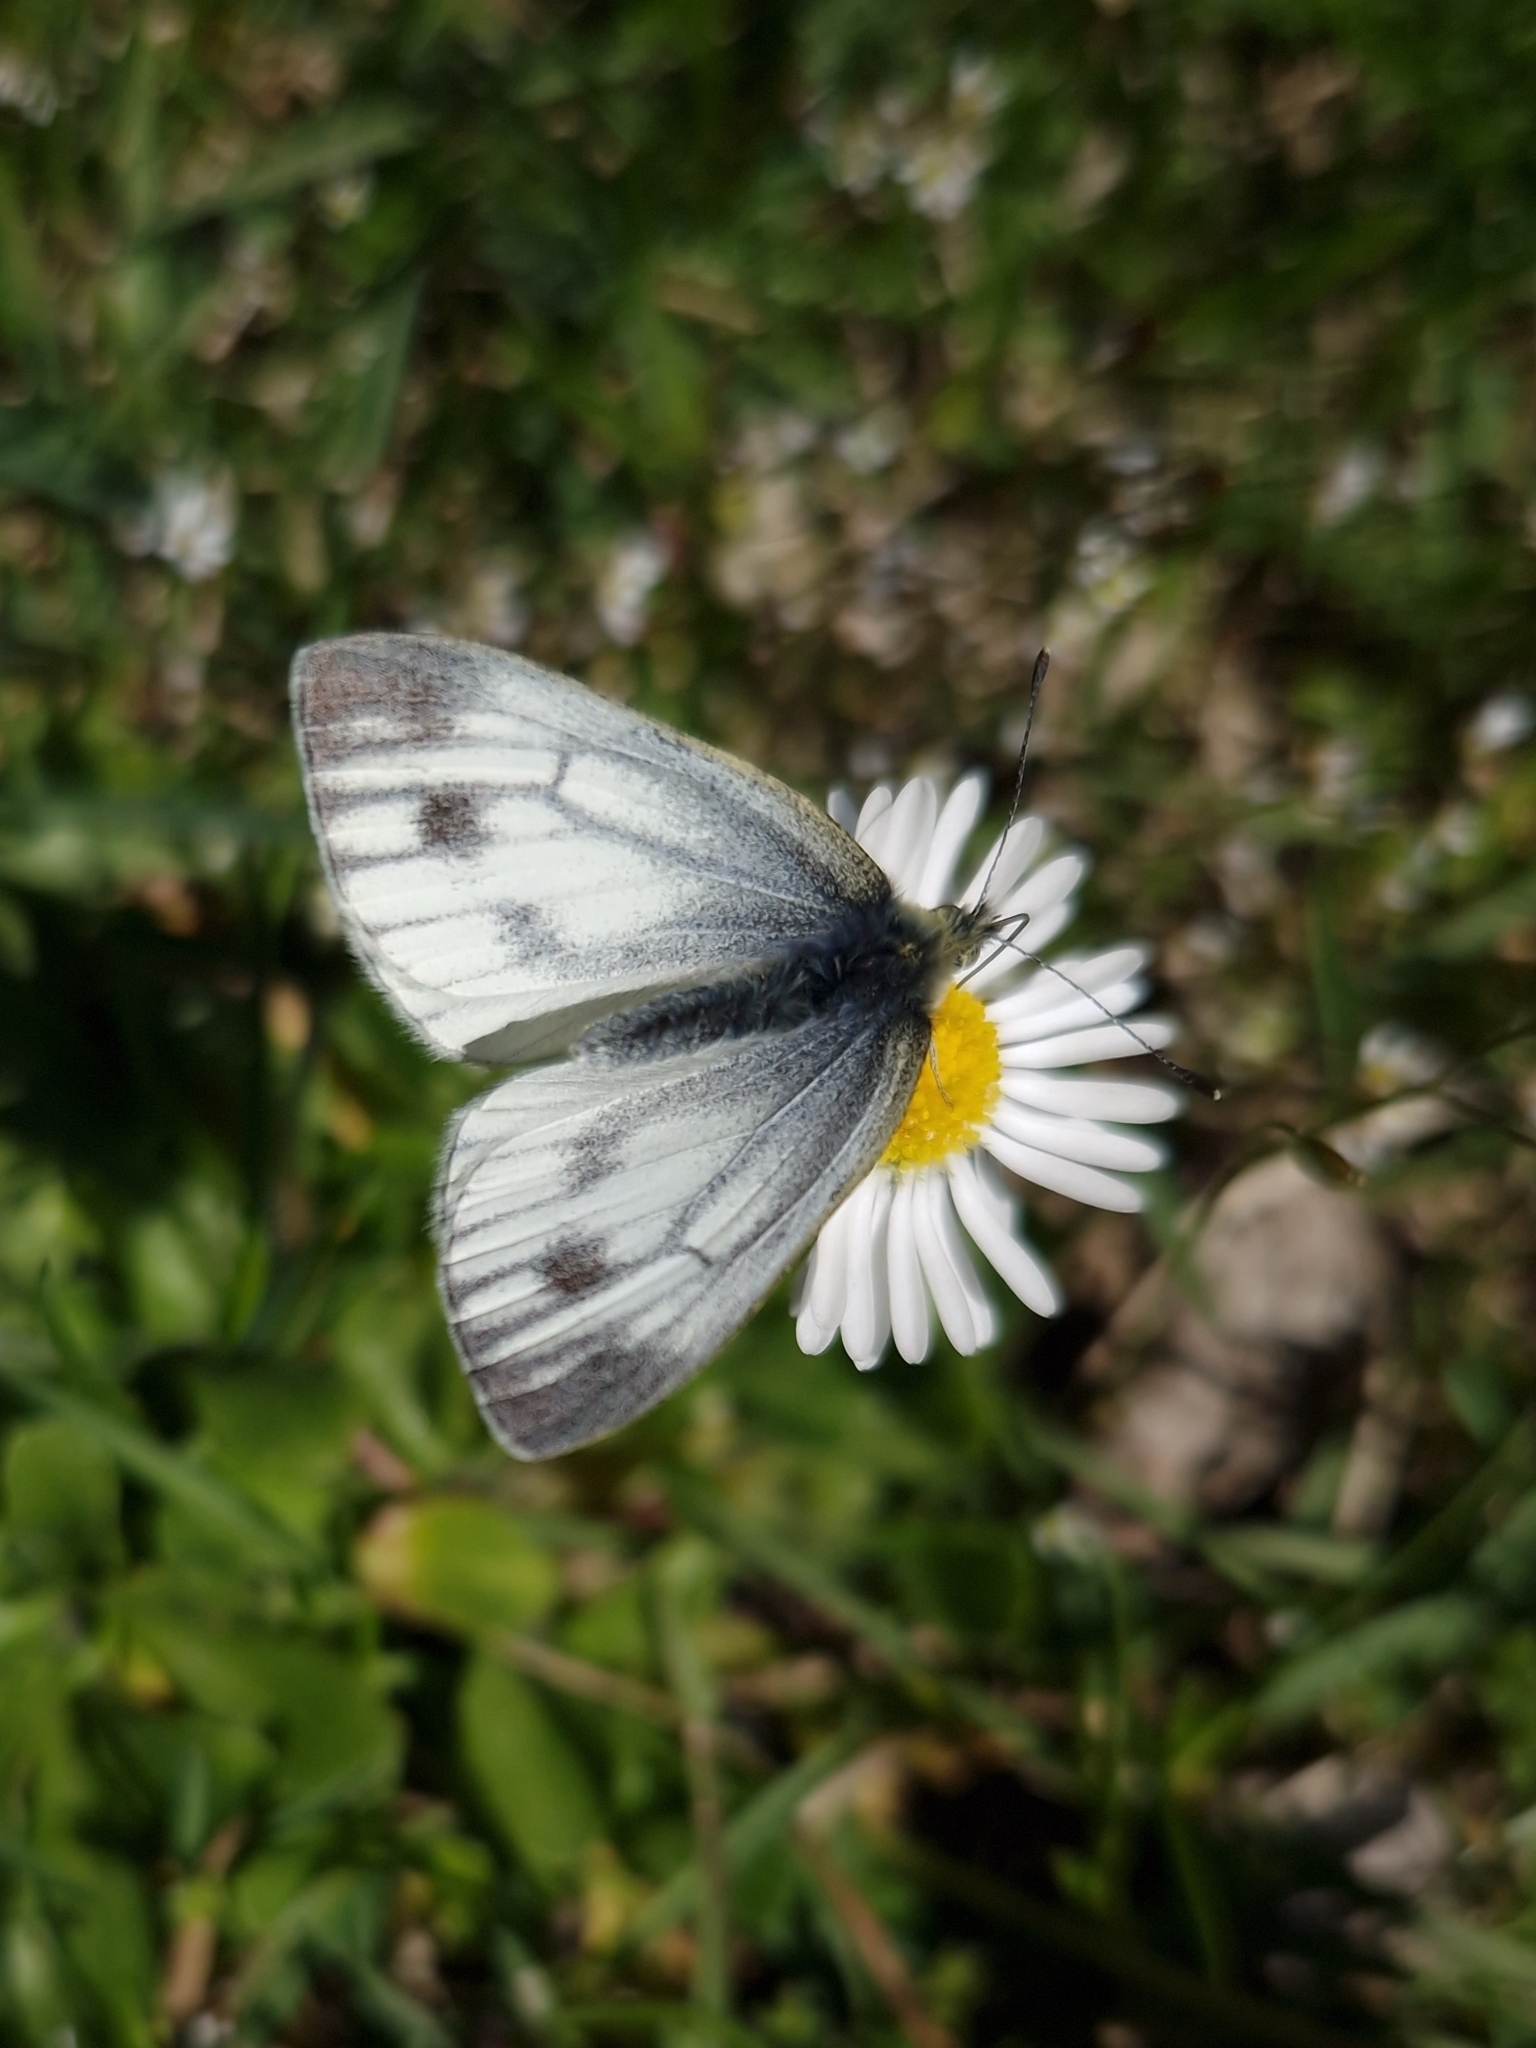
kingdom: Animalia
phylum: Arthropoda
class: Insecta
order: Lepidoptera
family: Pieridae
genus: Pieris
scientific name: Pieris napi
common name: Green-veined white
